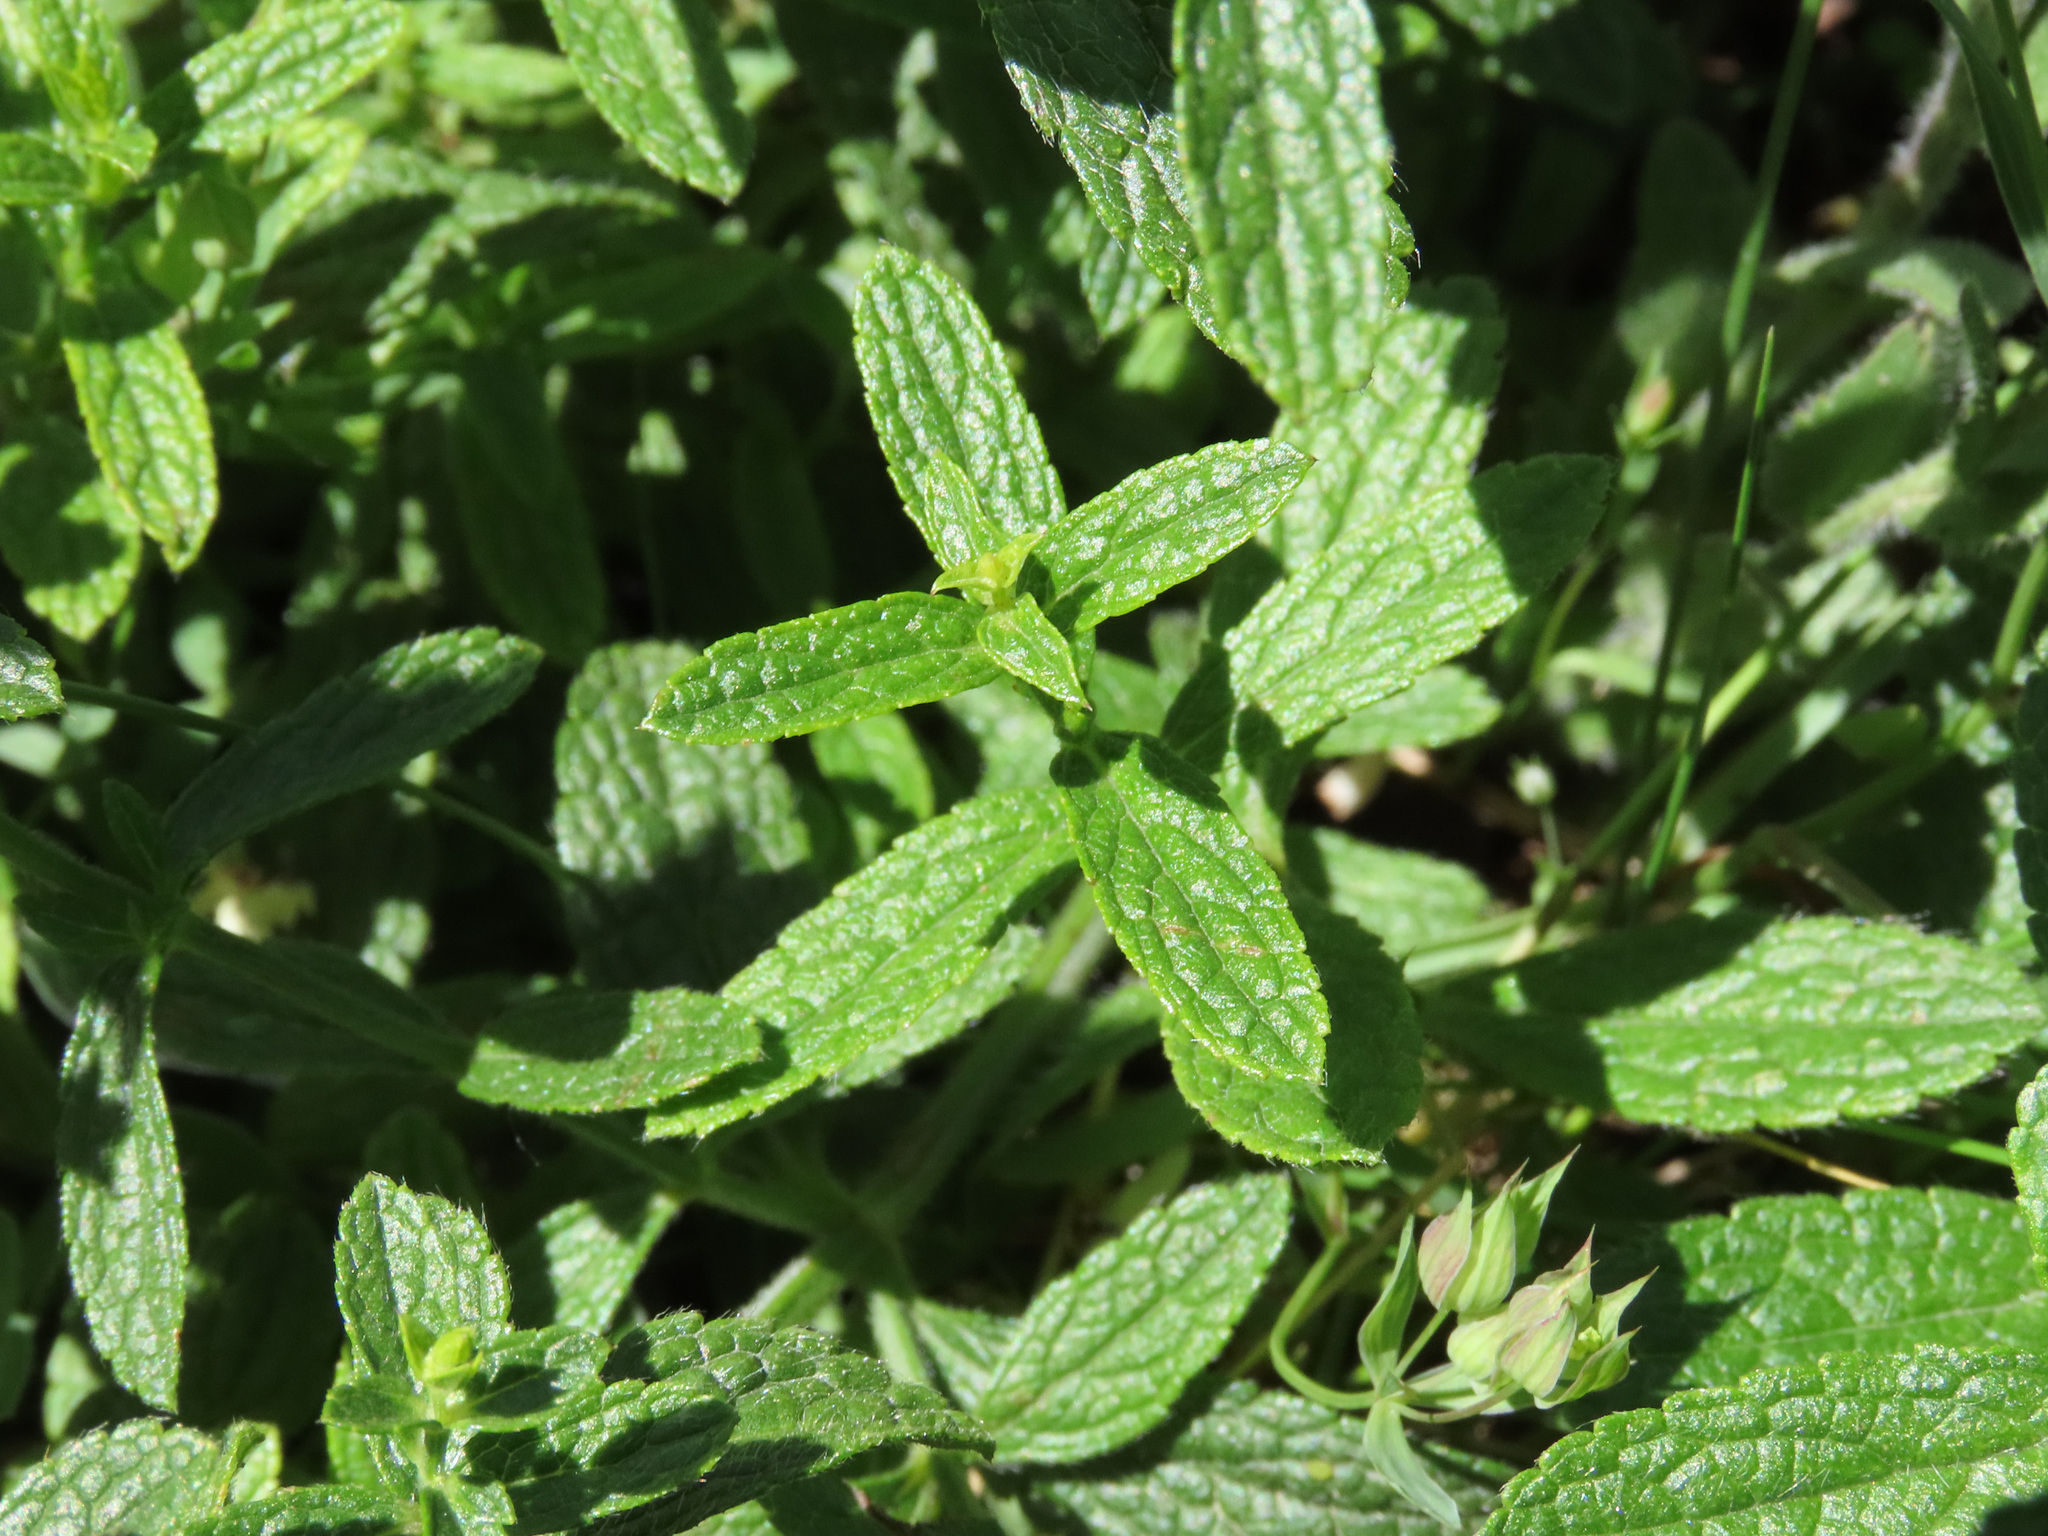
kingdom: Plantae
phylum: Tracheophyta
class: Magnoliopsida
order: Lamiales
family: Lamiaceae
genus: Stachys
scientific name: Stachys recta
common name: Perennial yellow-woundwort
